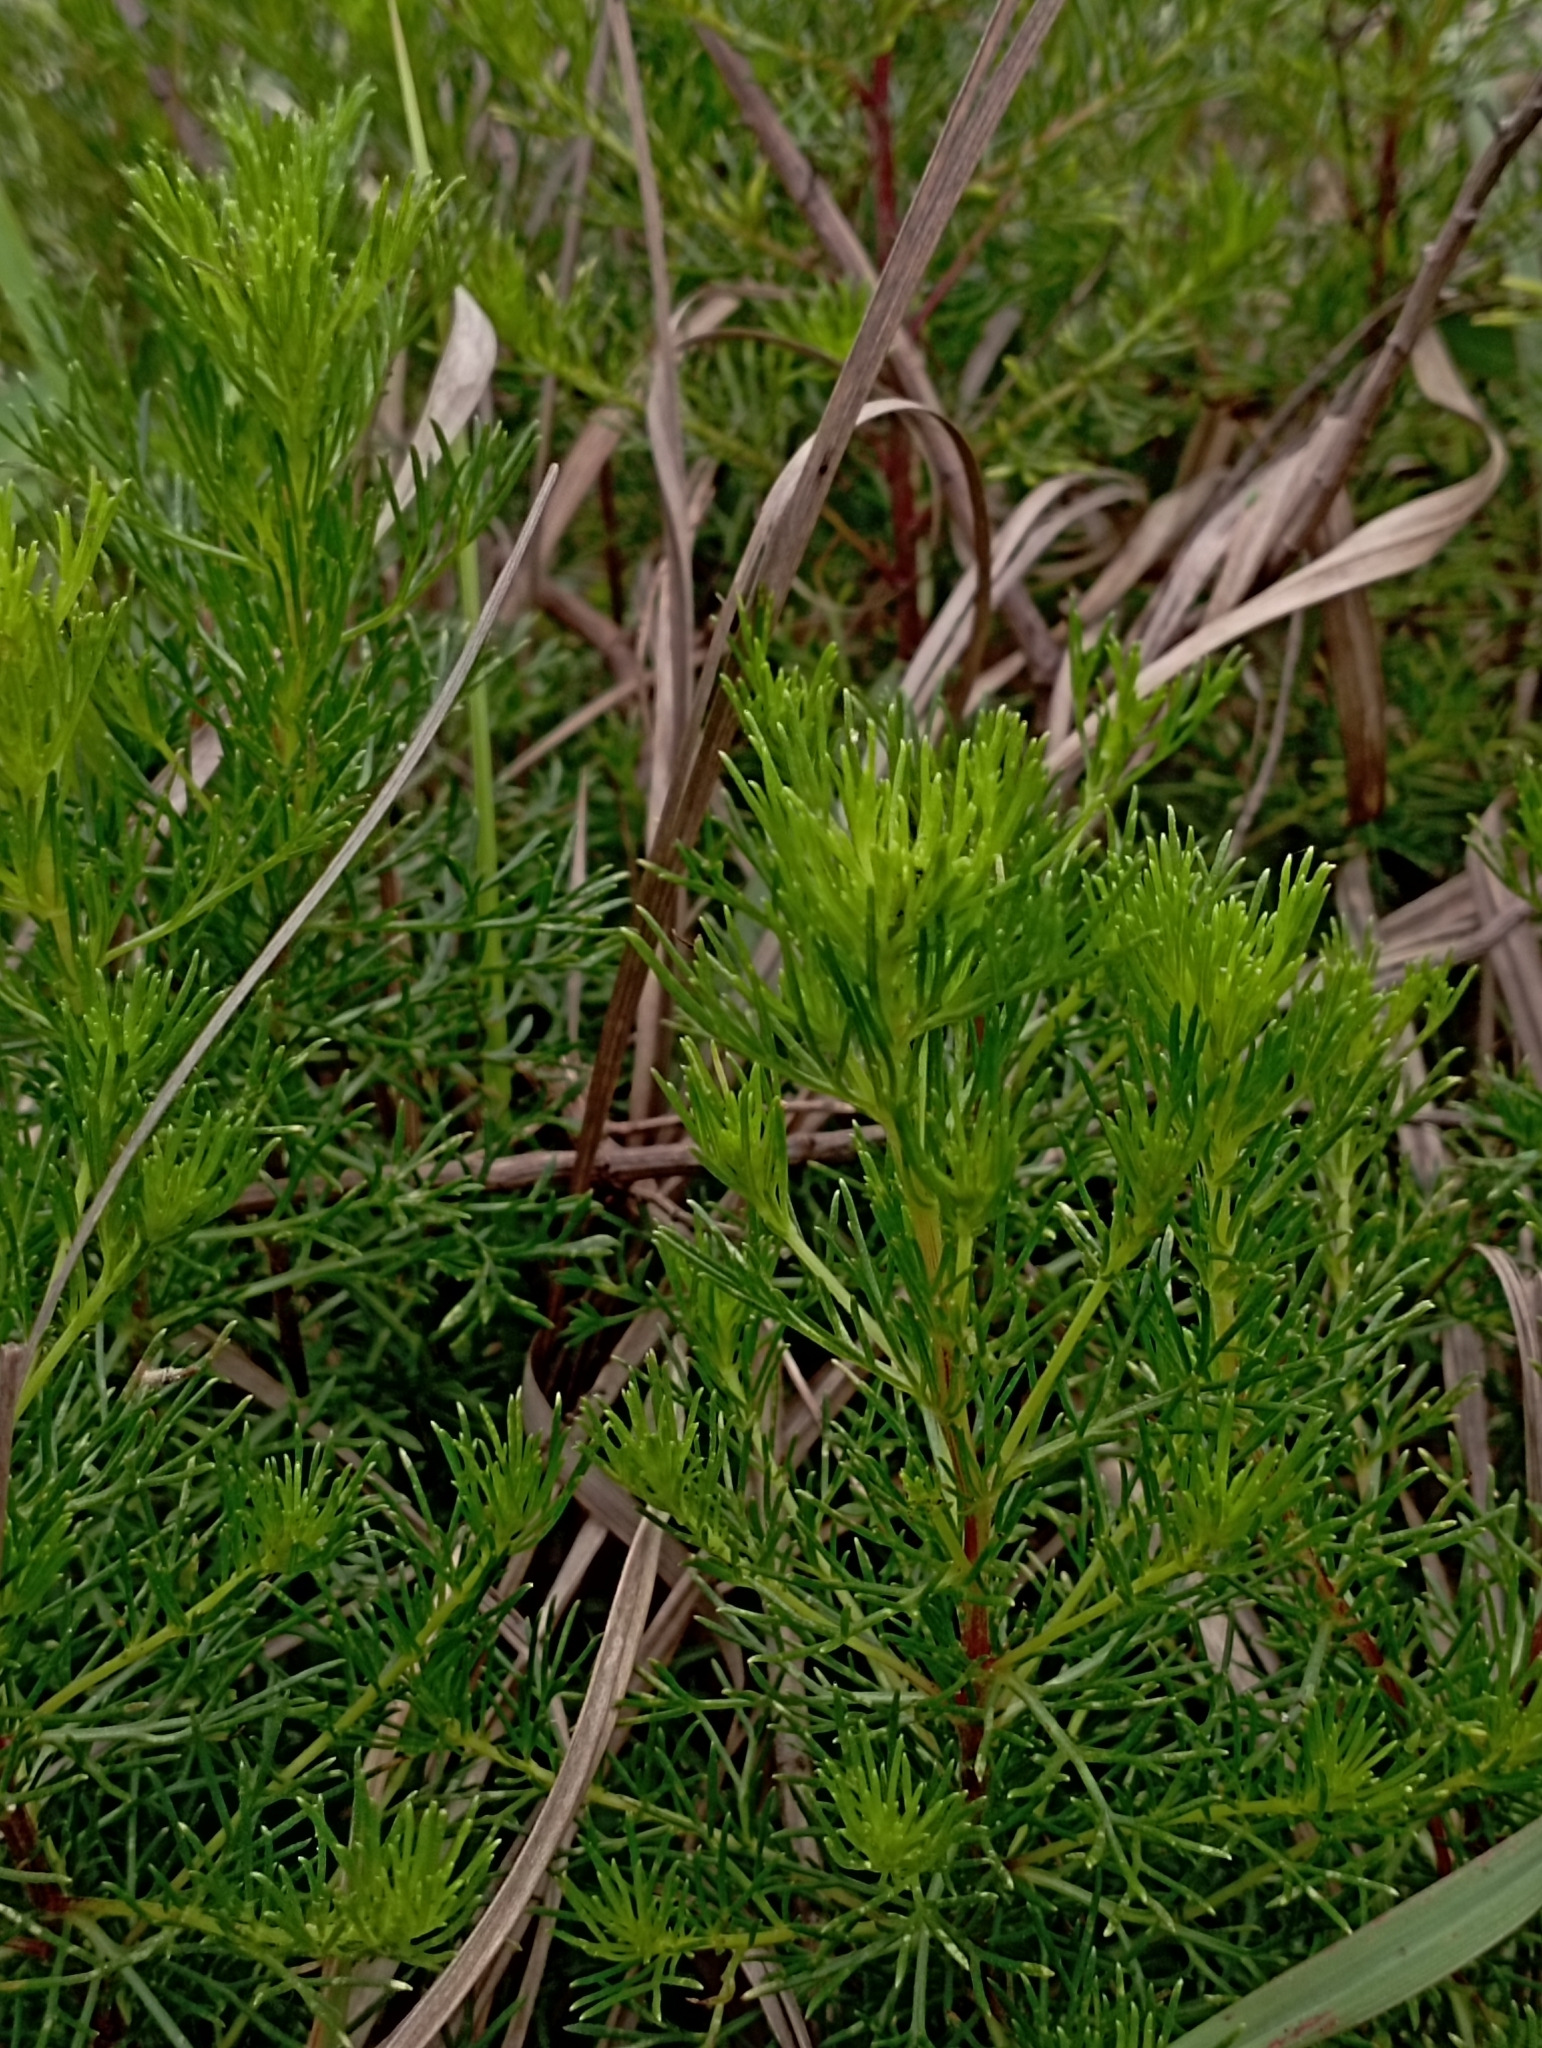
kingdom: Plantae
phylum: Tracheophyta
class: Magnoliopsida
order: Asterales
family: Asteraceae
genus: Artemisia
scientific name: Artemisia capillaris
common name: Yin-chen wormwood
